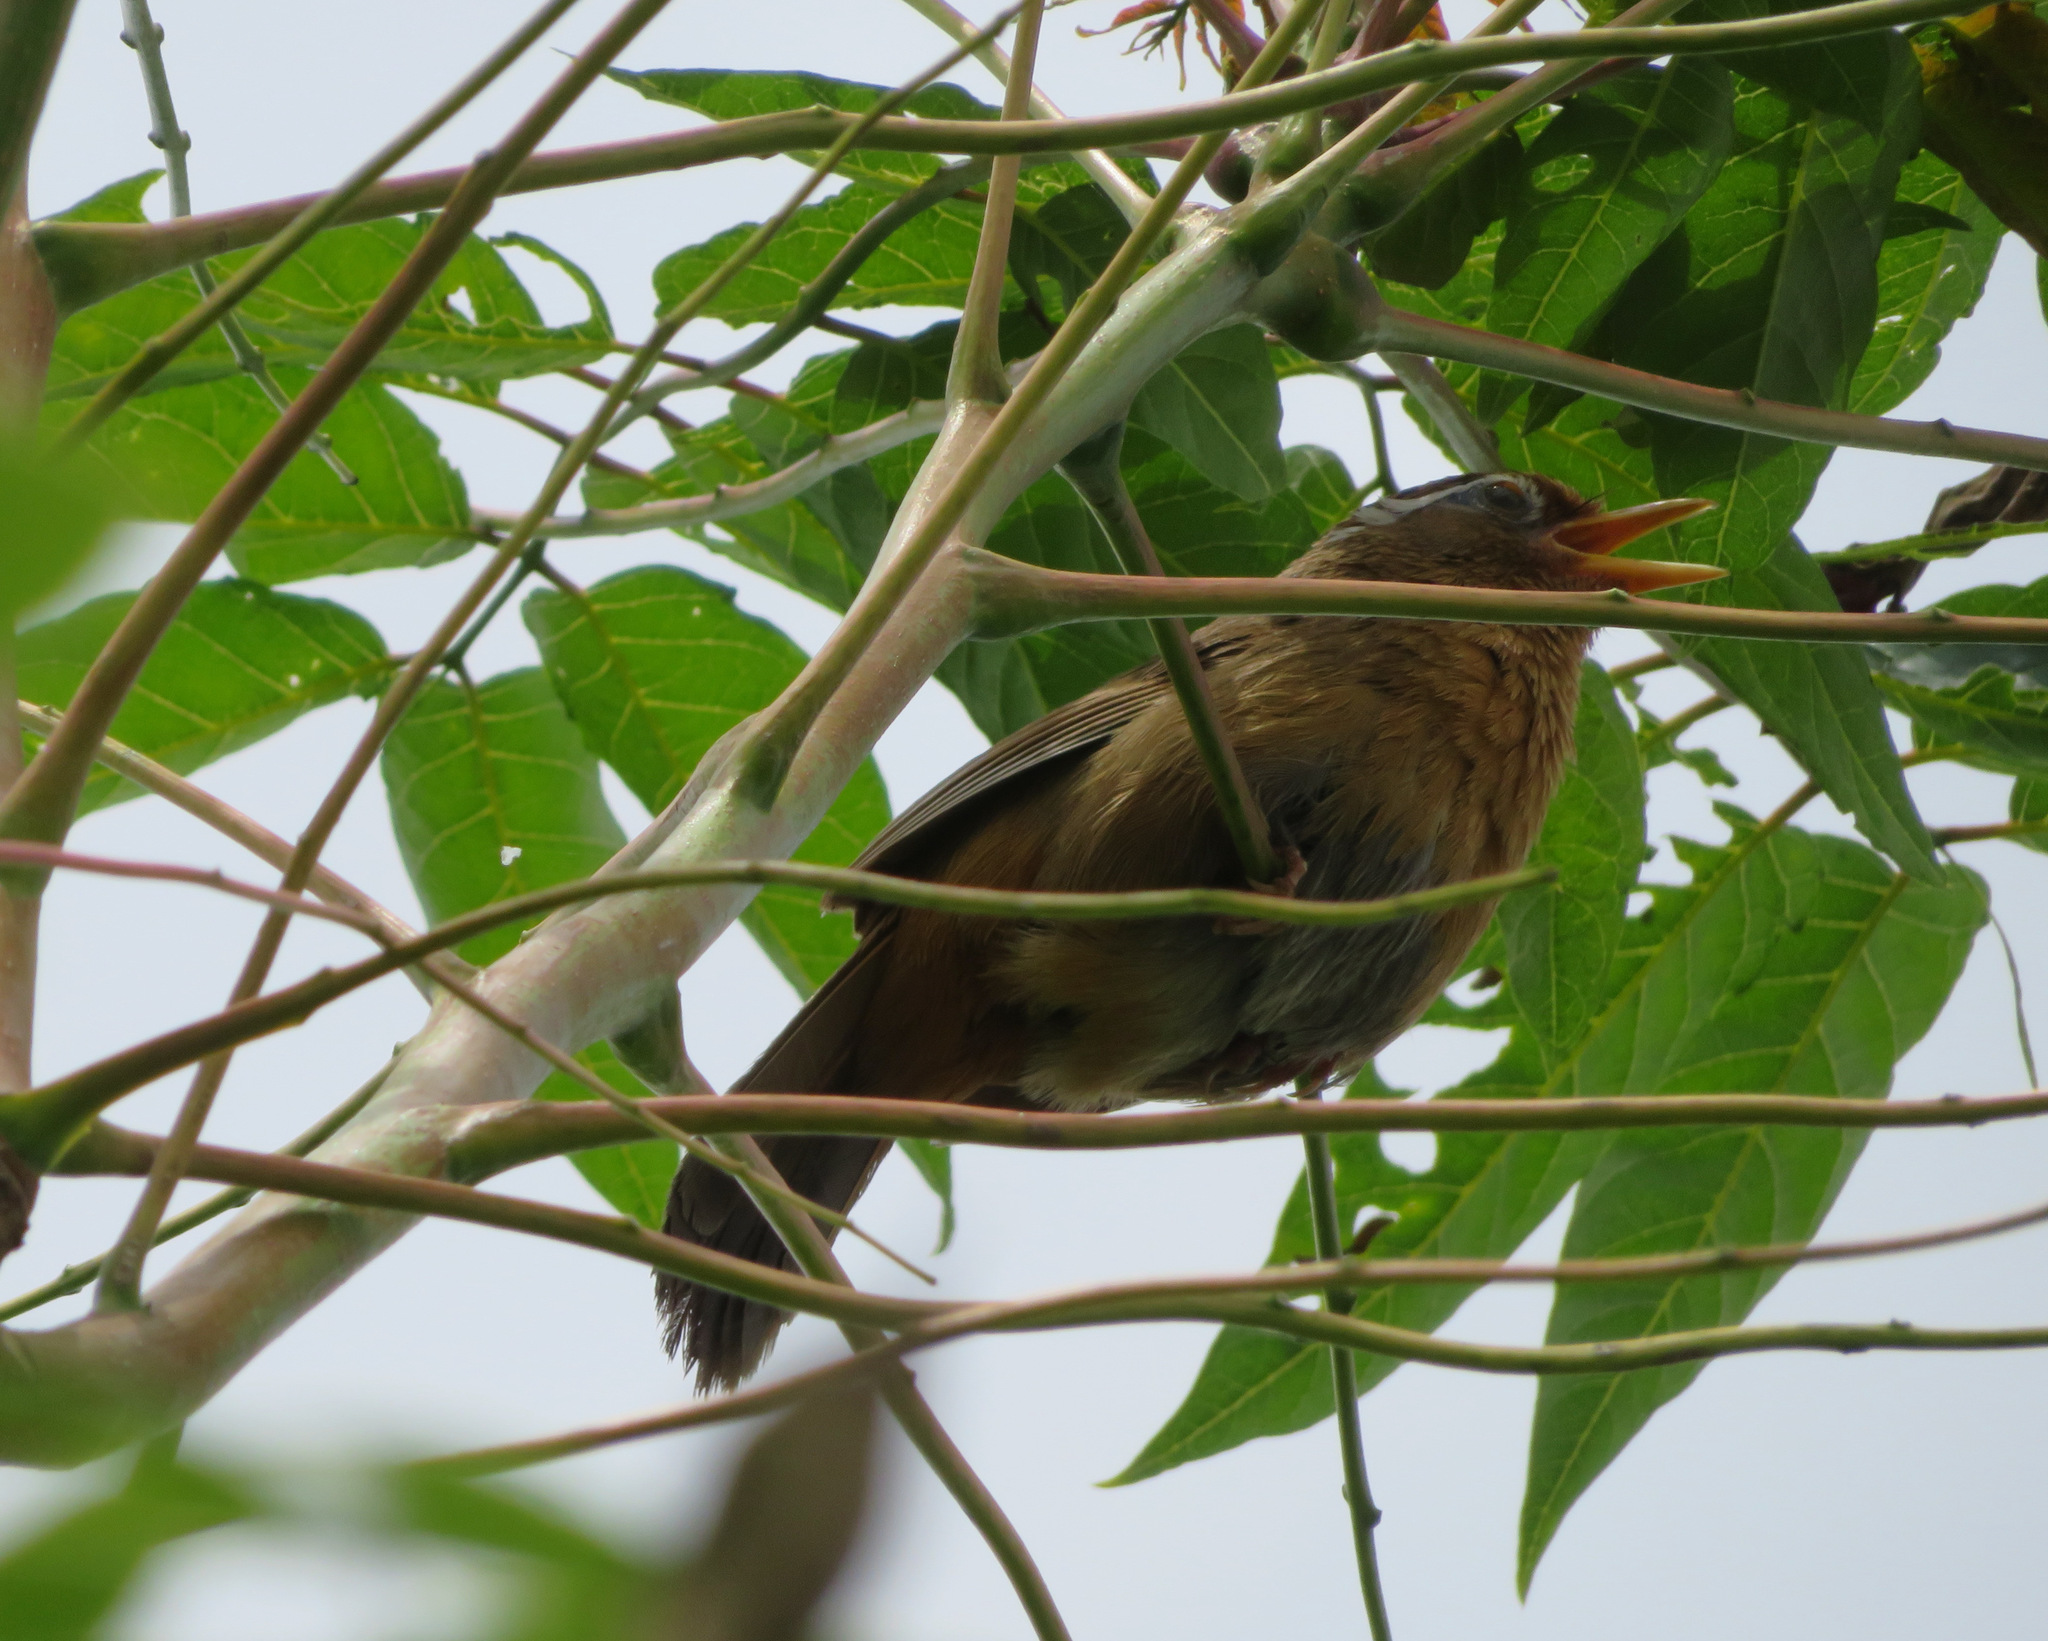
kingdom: Animalia
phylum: Chordata
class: Aves
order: Passeriformes
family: Leiothrichidae
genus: Garrulax
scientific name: Garrulax canorus
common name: Chinese hwamei
